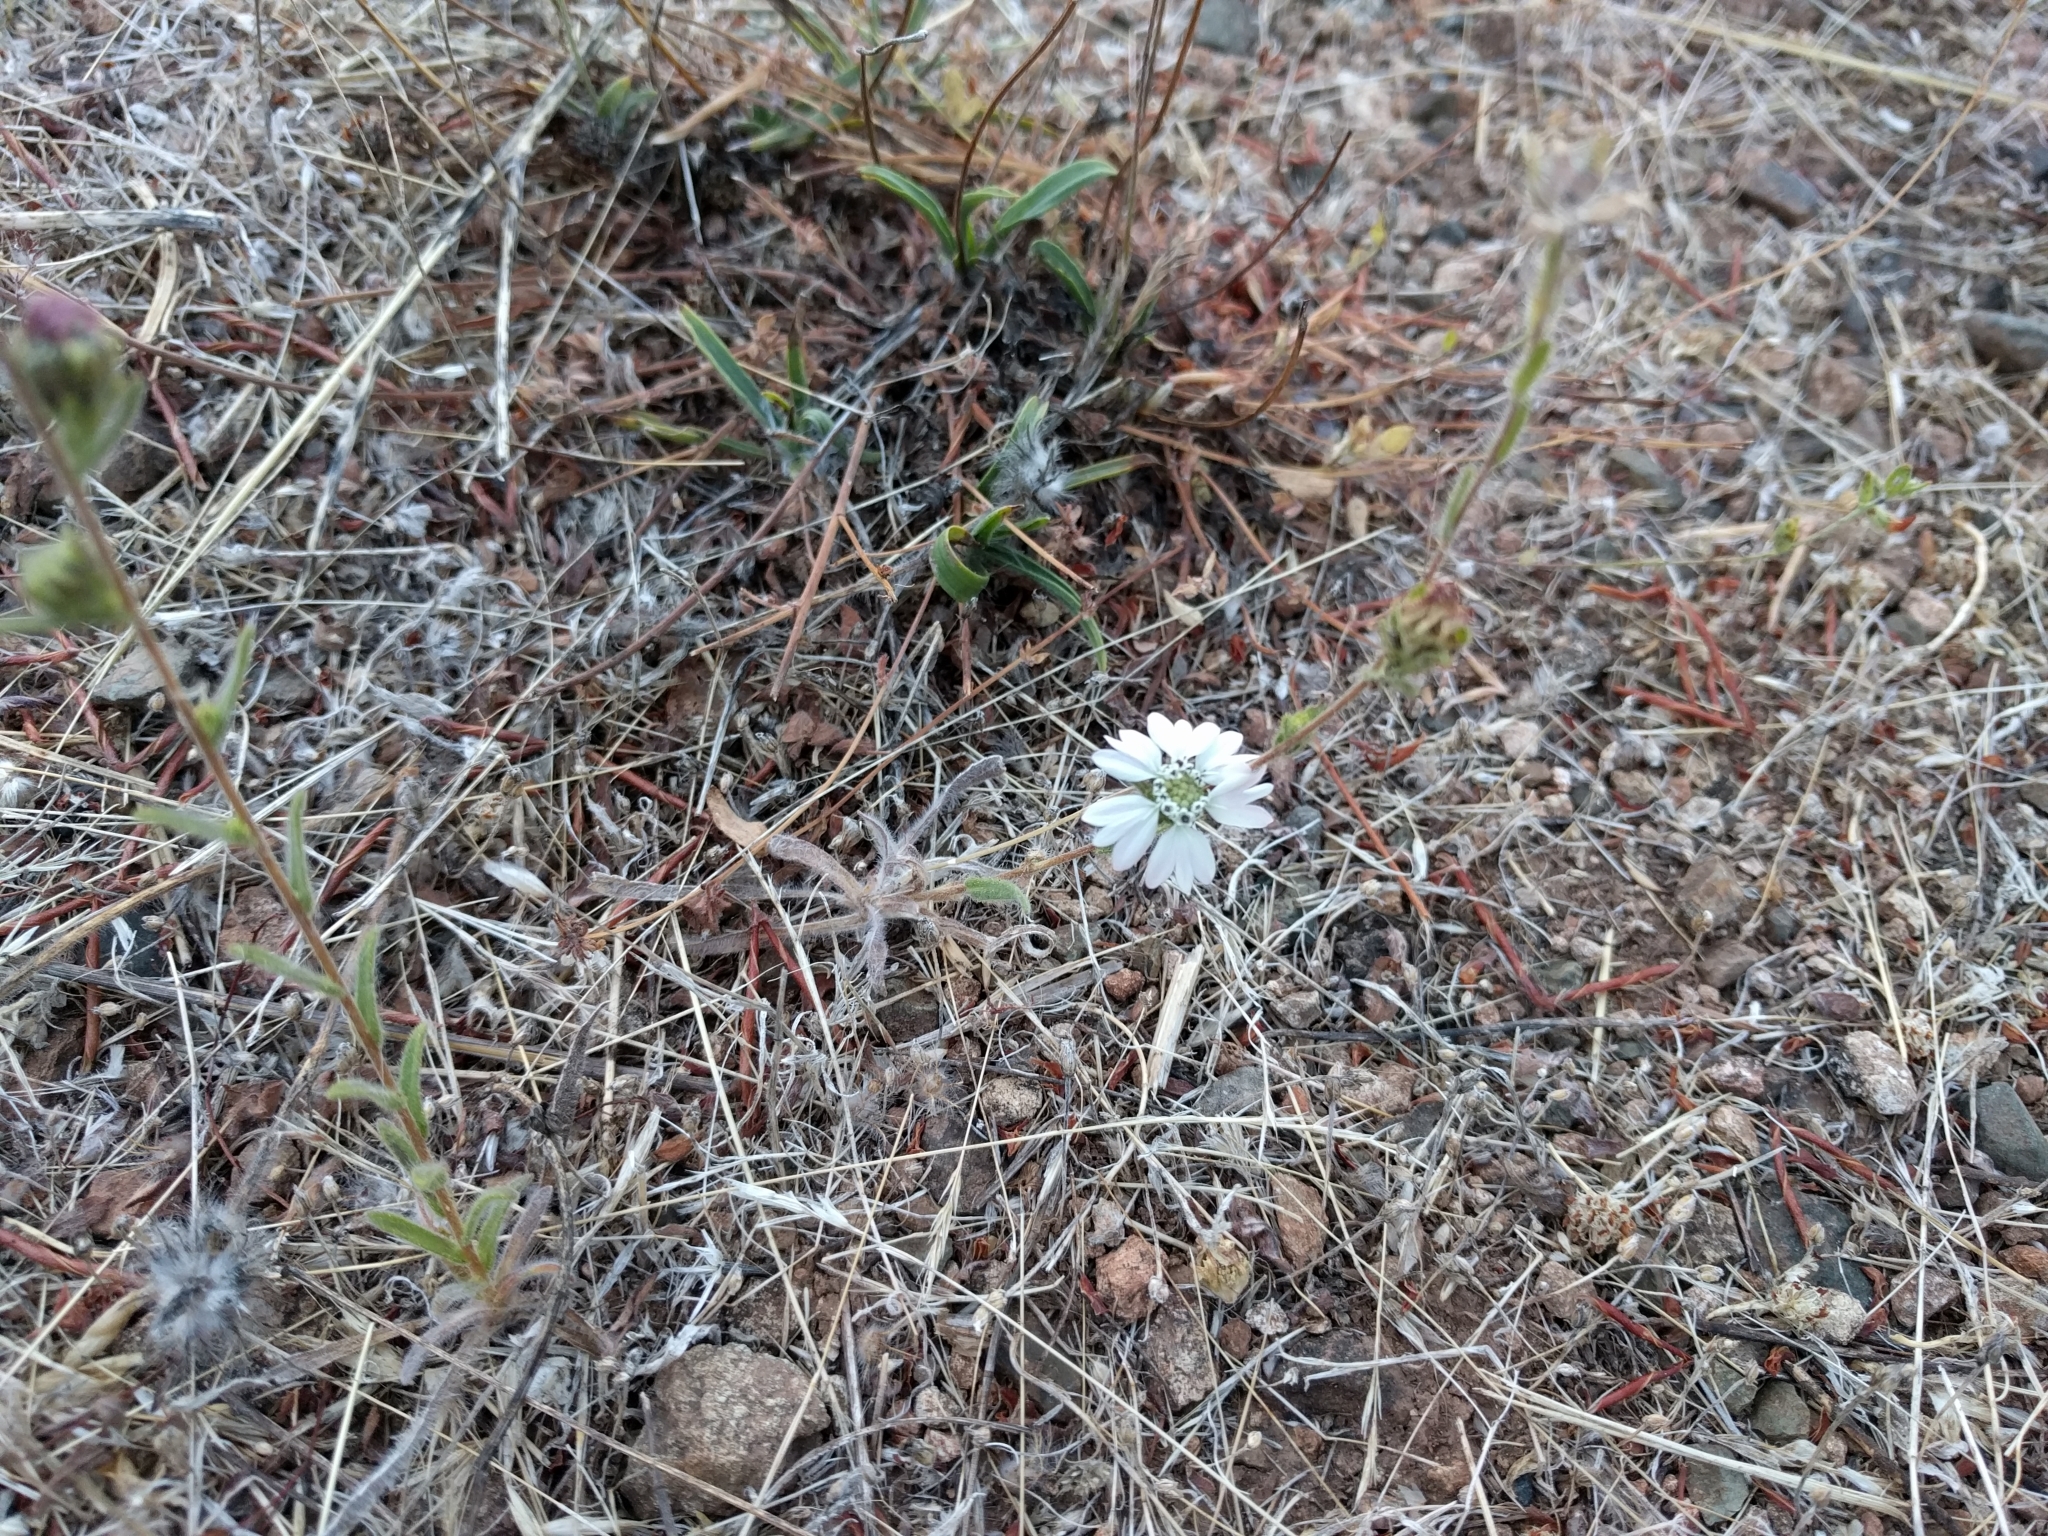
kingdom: Plantae
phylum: Tracheophyta
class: Magnoliopsida
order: Asterales
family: Asteraceae
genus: Hemizonia
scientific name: Hemizonia congesta
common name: Hayfield tarweed
